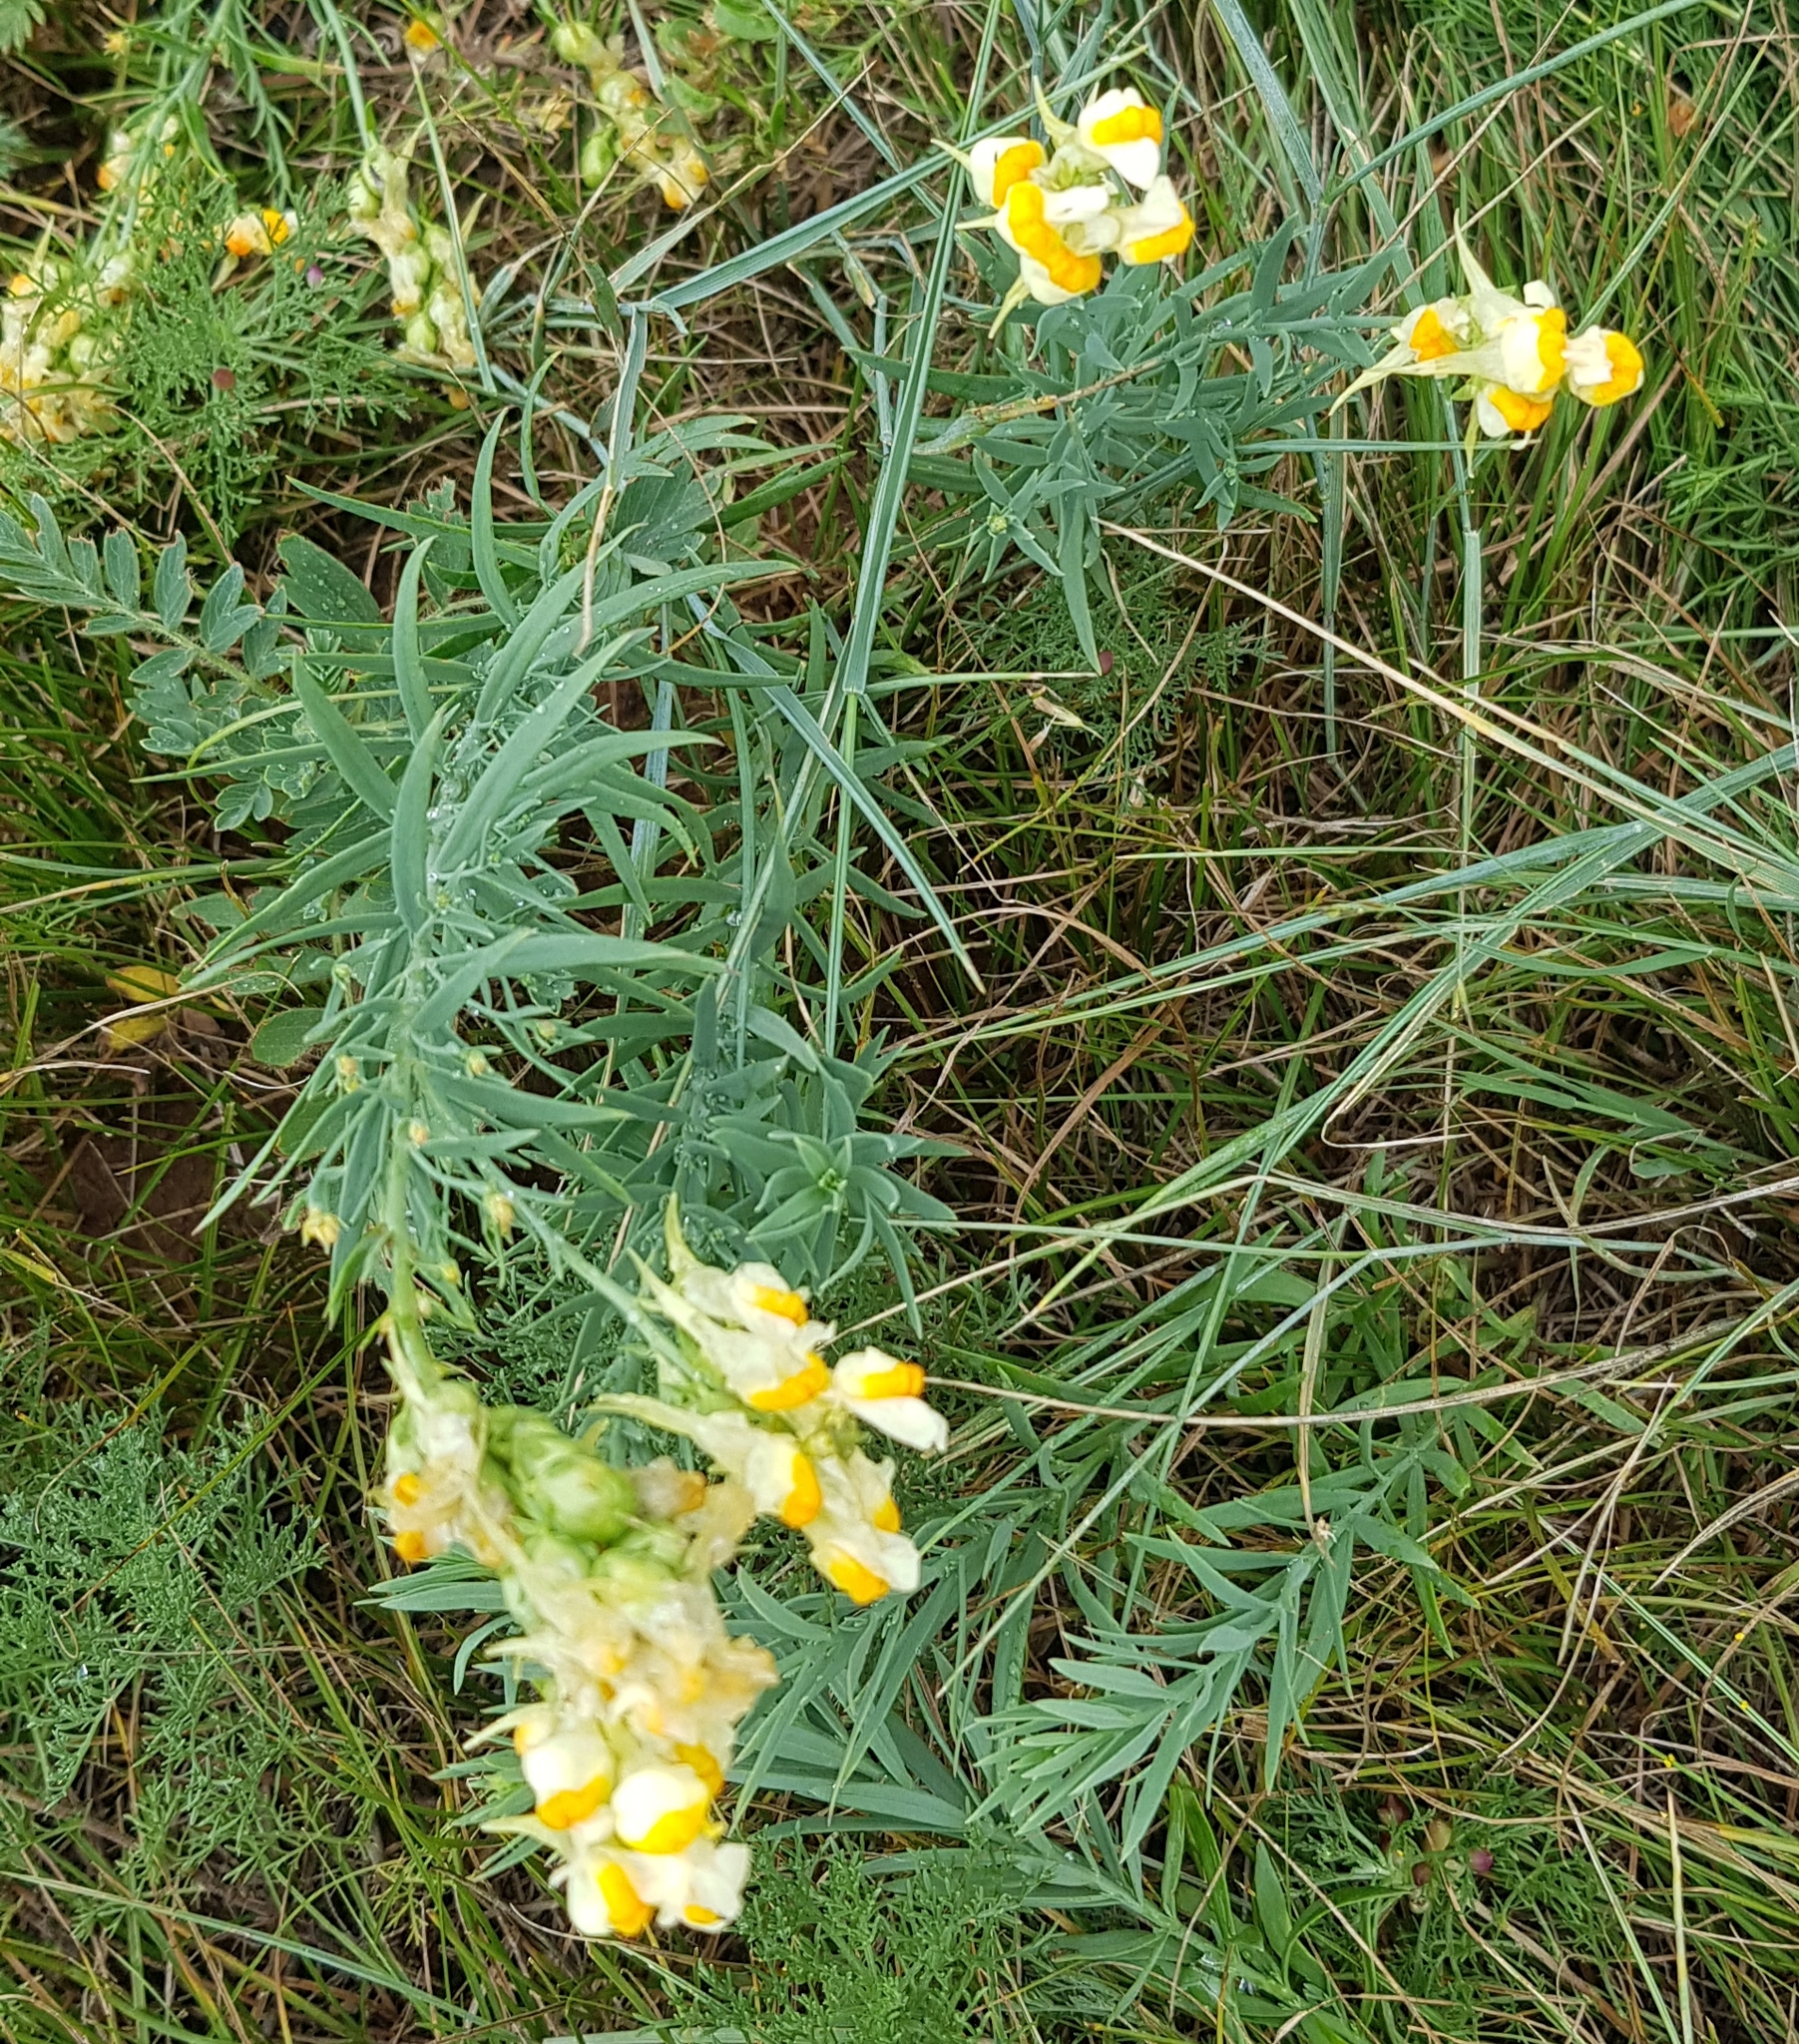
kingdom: Plantae
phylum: Tracheophyta
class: Magnoliopsida
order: Lamiales
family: Plantaginaceae
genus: Linaria
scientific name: Linaria buriatica
